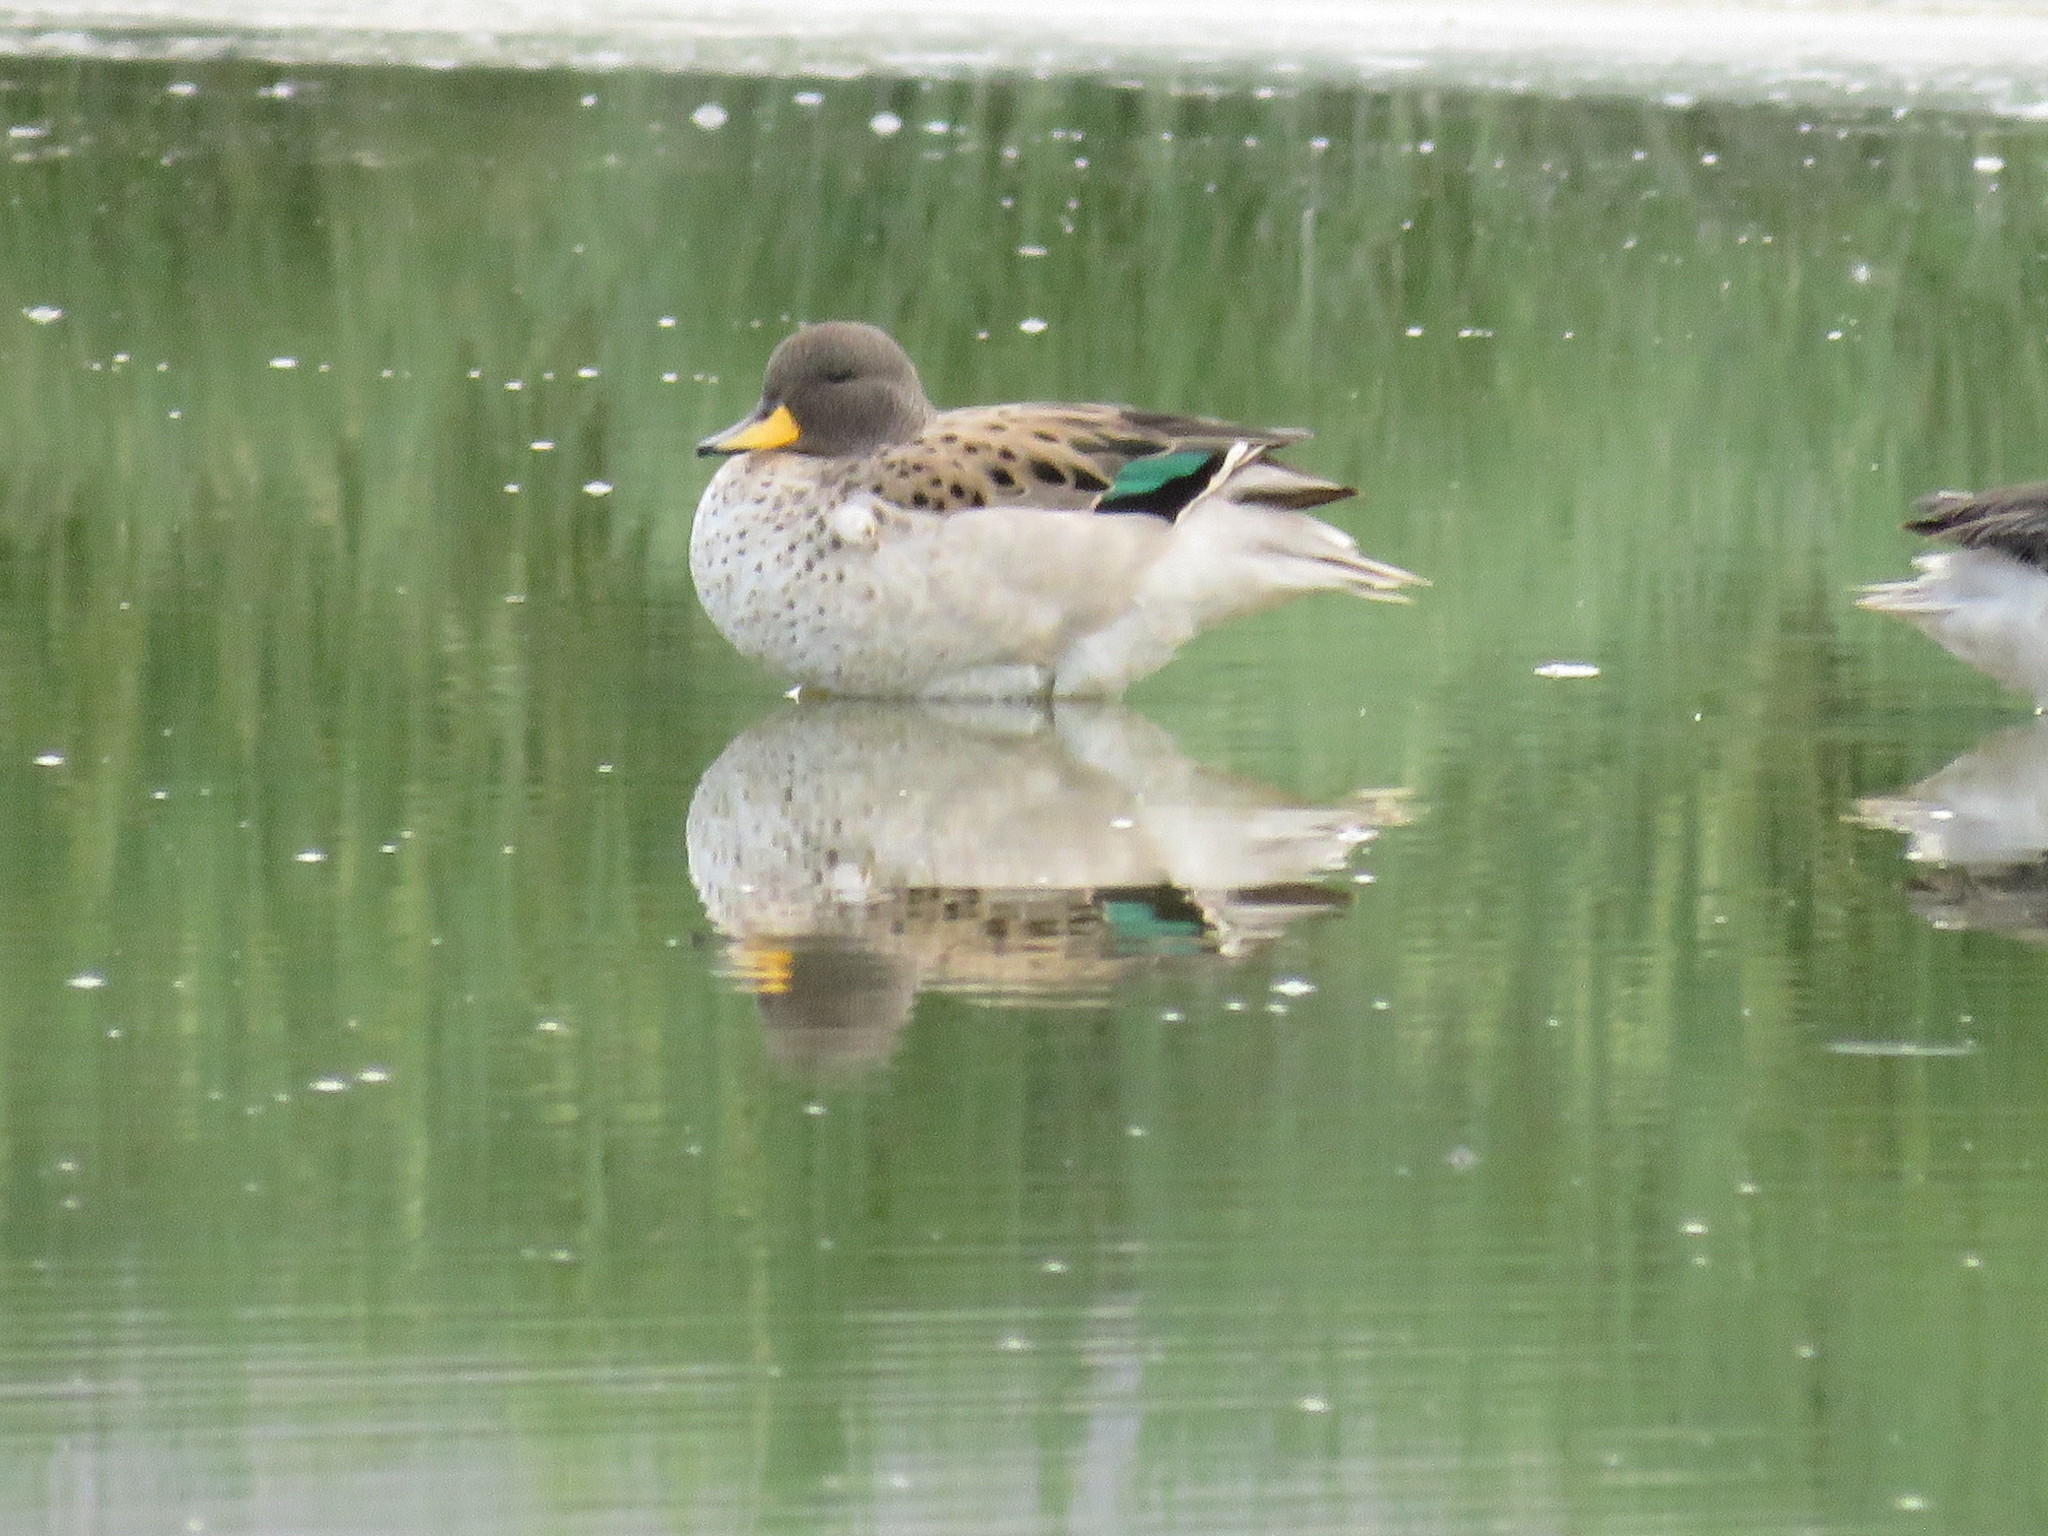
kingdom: Animalia
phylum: Chordata
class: Aves
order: Anseriformes
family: Anatidae
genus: Anas
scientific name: Anas flavirostris
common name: Yellow-billed teal
